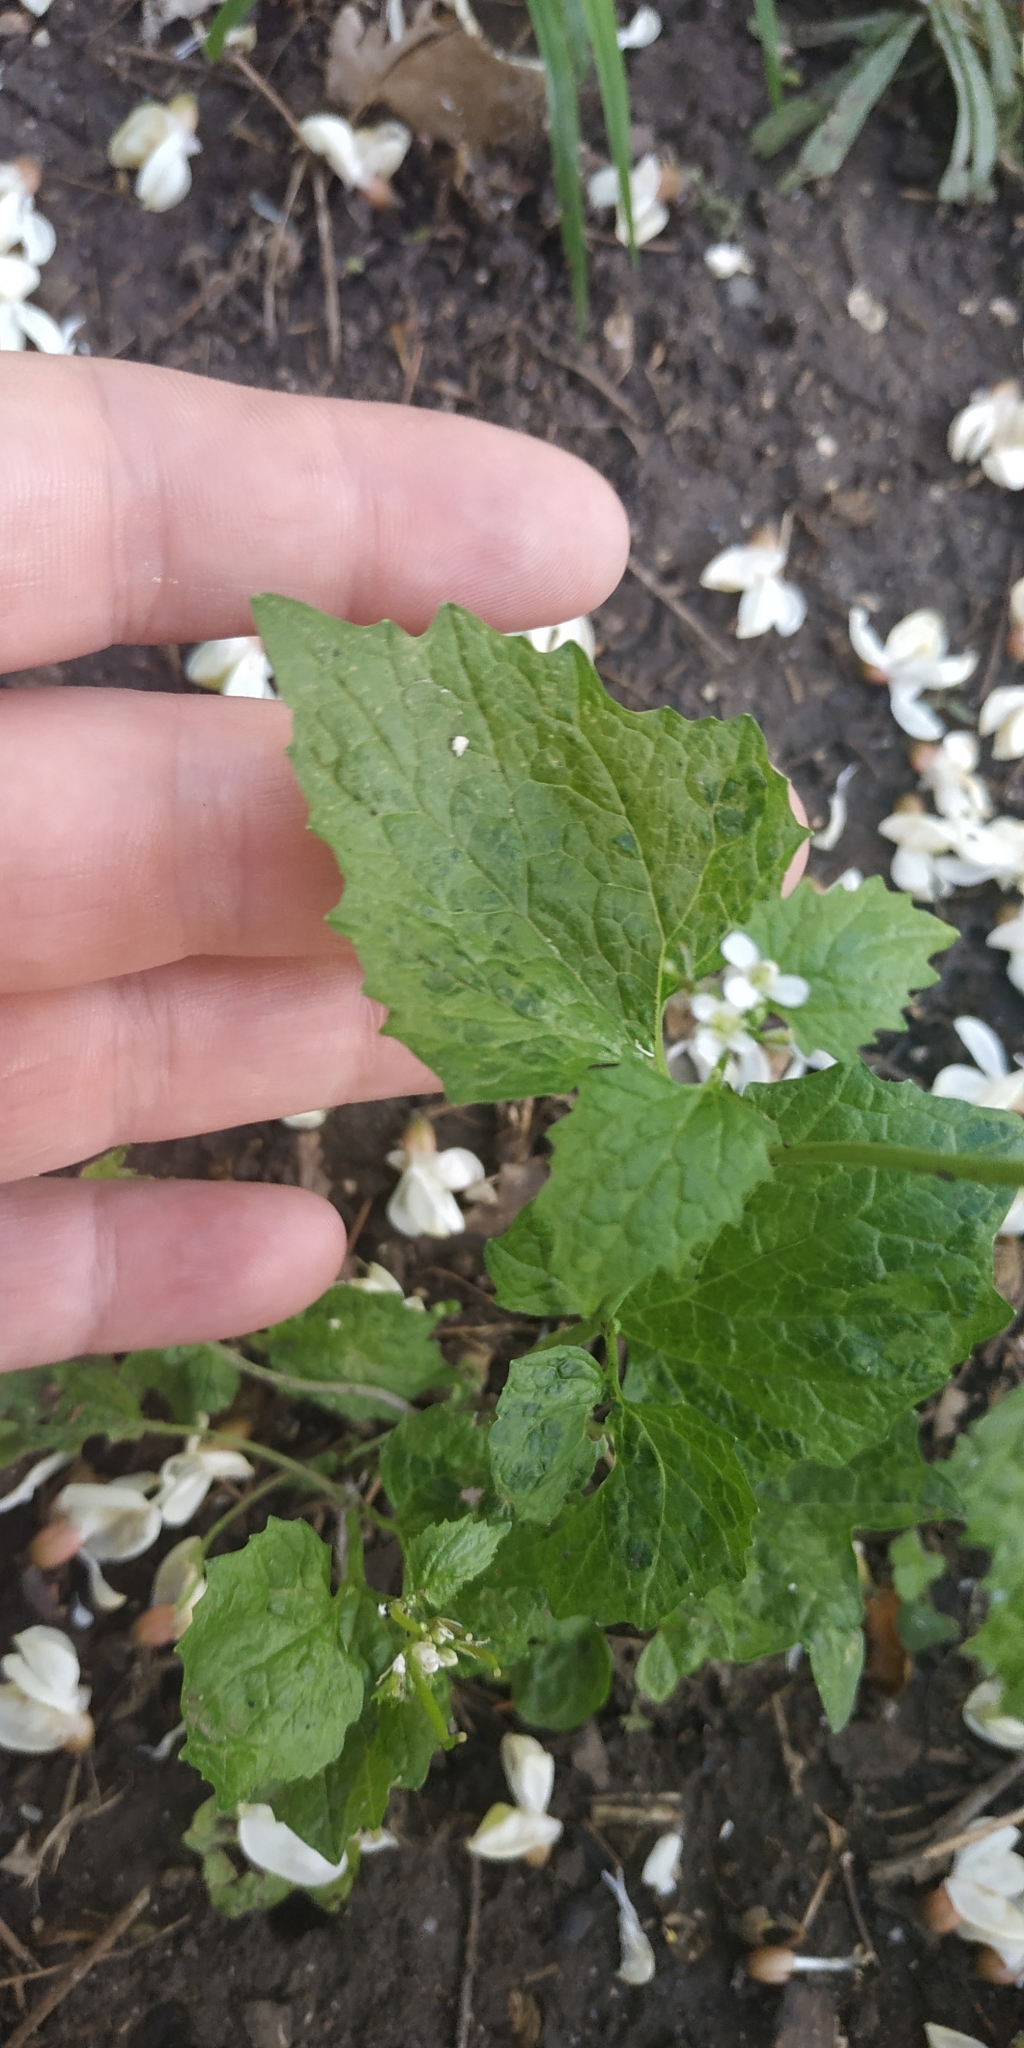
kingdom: Plantae
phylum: Tracheophyta
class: Magnoliopsida
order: Brassicales
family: Brassicaceae
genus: Alliaria
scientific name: Alliaria petiolata
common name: Garlic mustard
